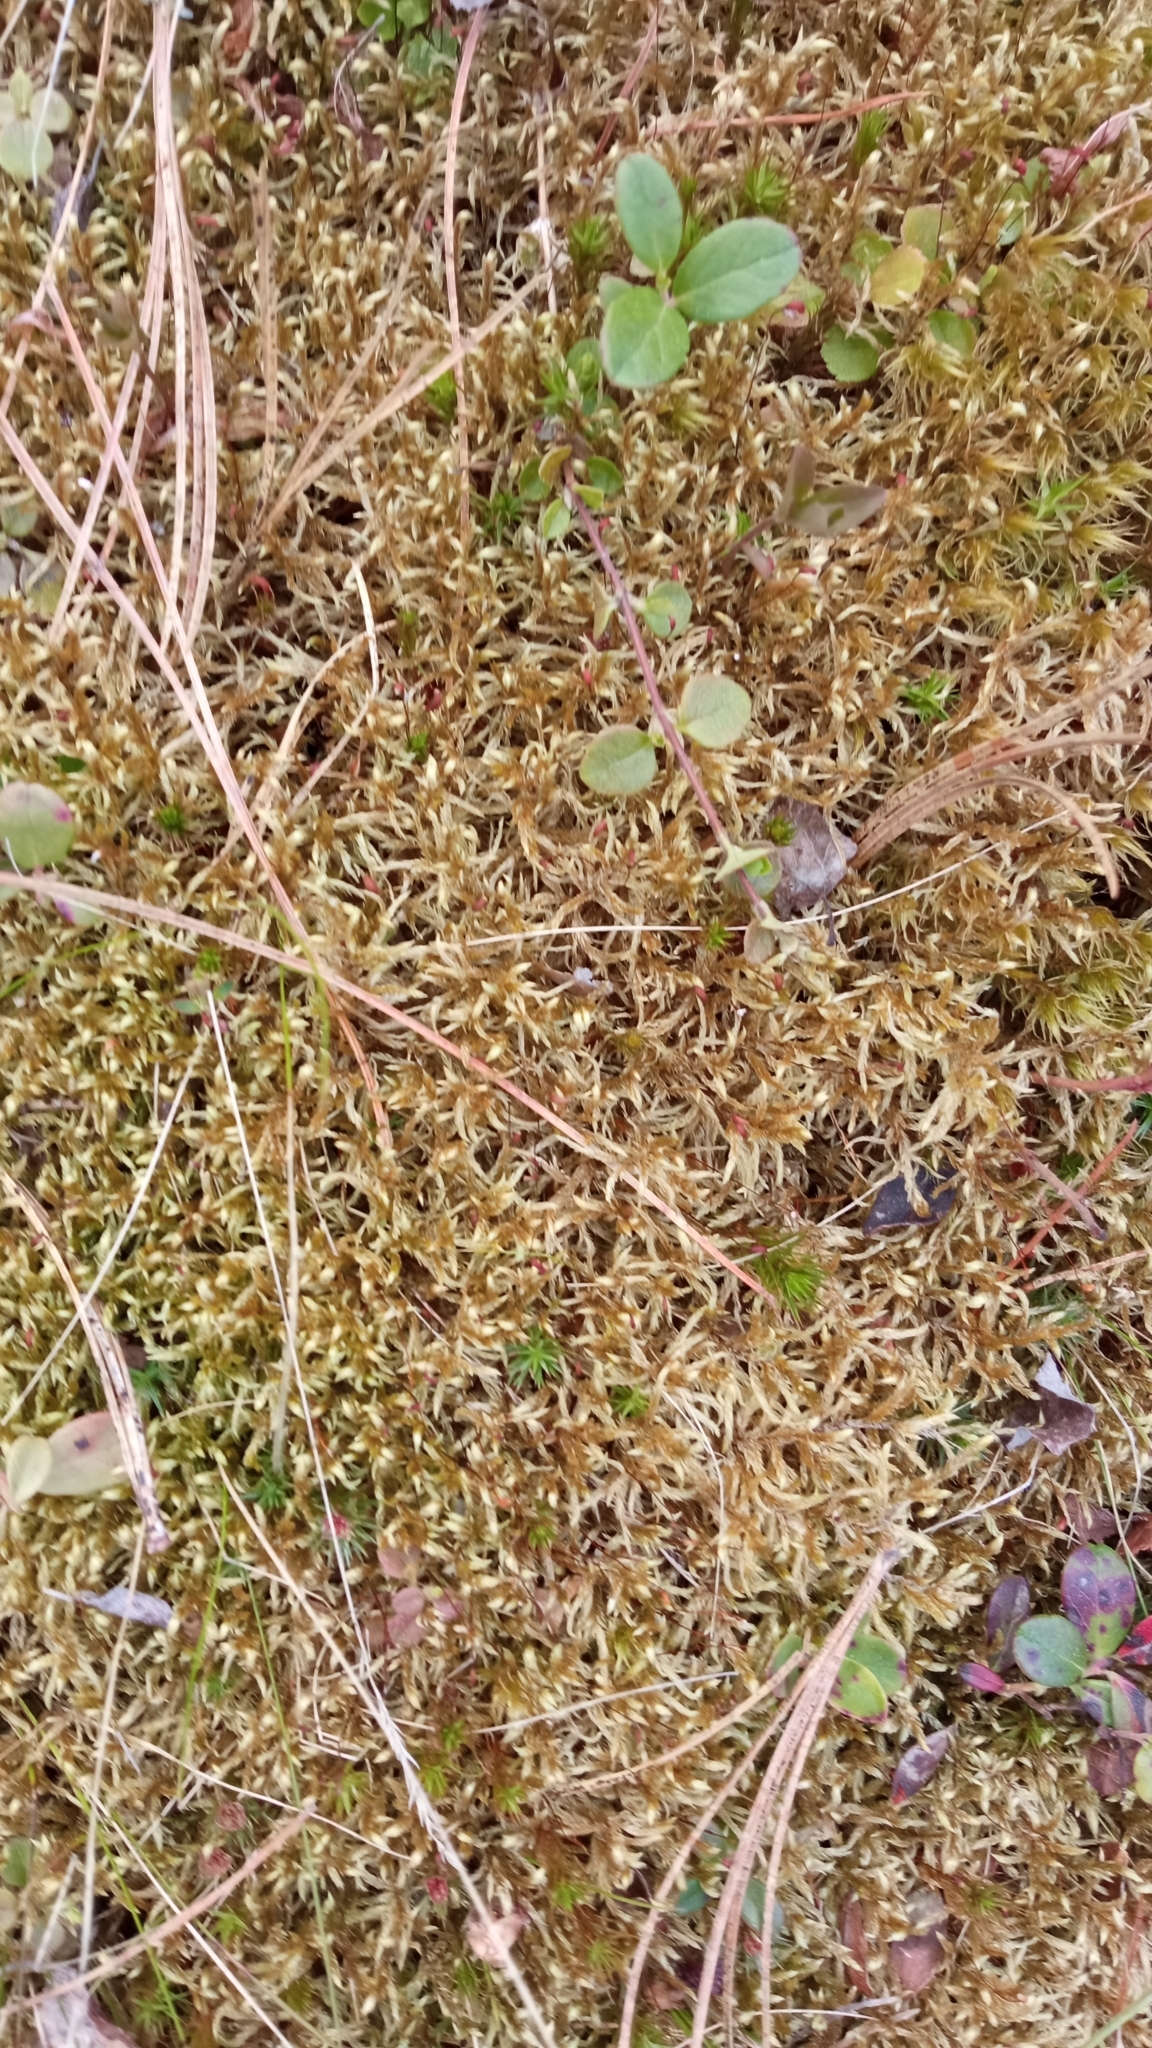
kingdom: Plantae
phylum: Bryophyta
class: Bryopsida
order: Hypnales
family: Hylocomiaceae
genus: Pleurozium
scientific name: Pleurozium schreberi
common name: Red-stemmed feather moss
